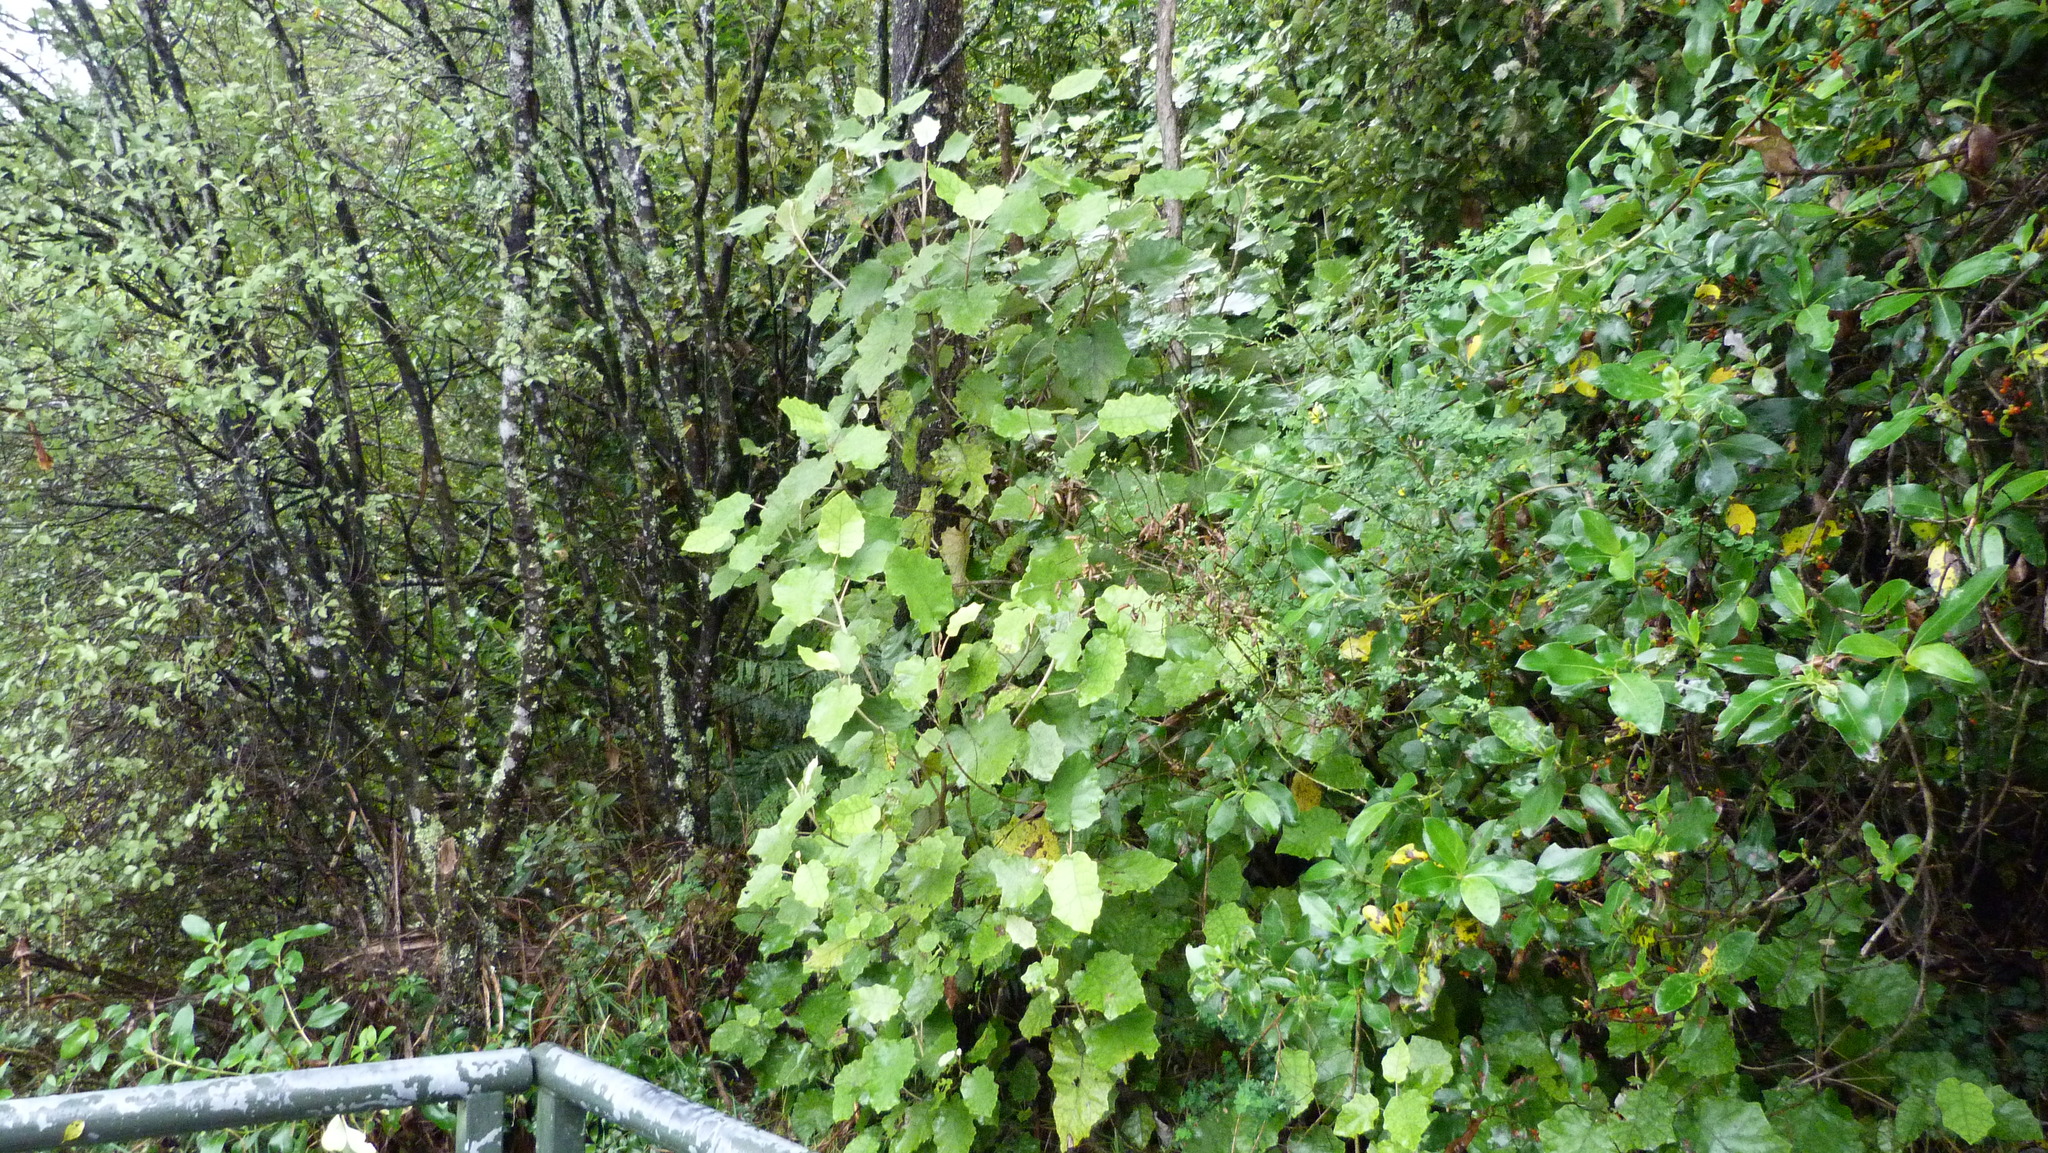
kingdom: Plantae
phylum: Tracheophyta
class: Magnoliopsida
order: Asterales
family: Asteraceae
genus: Brachyglottis
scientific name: Brachyglottis repanda
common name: Hedge ragwort
